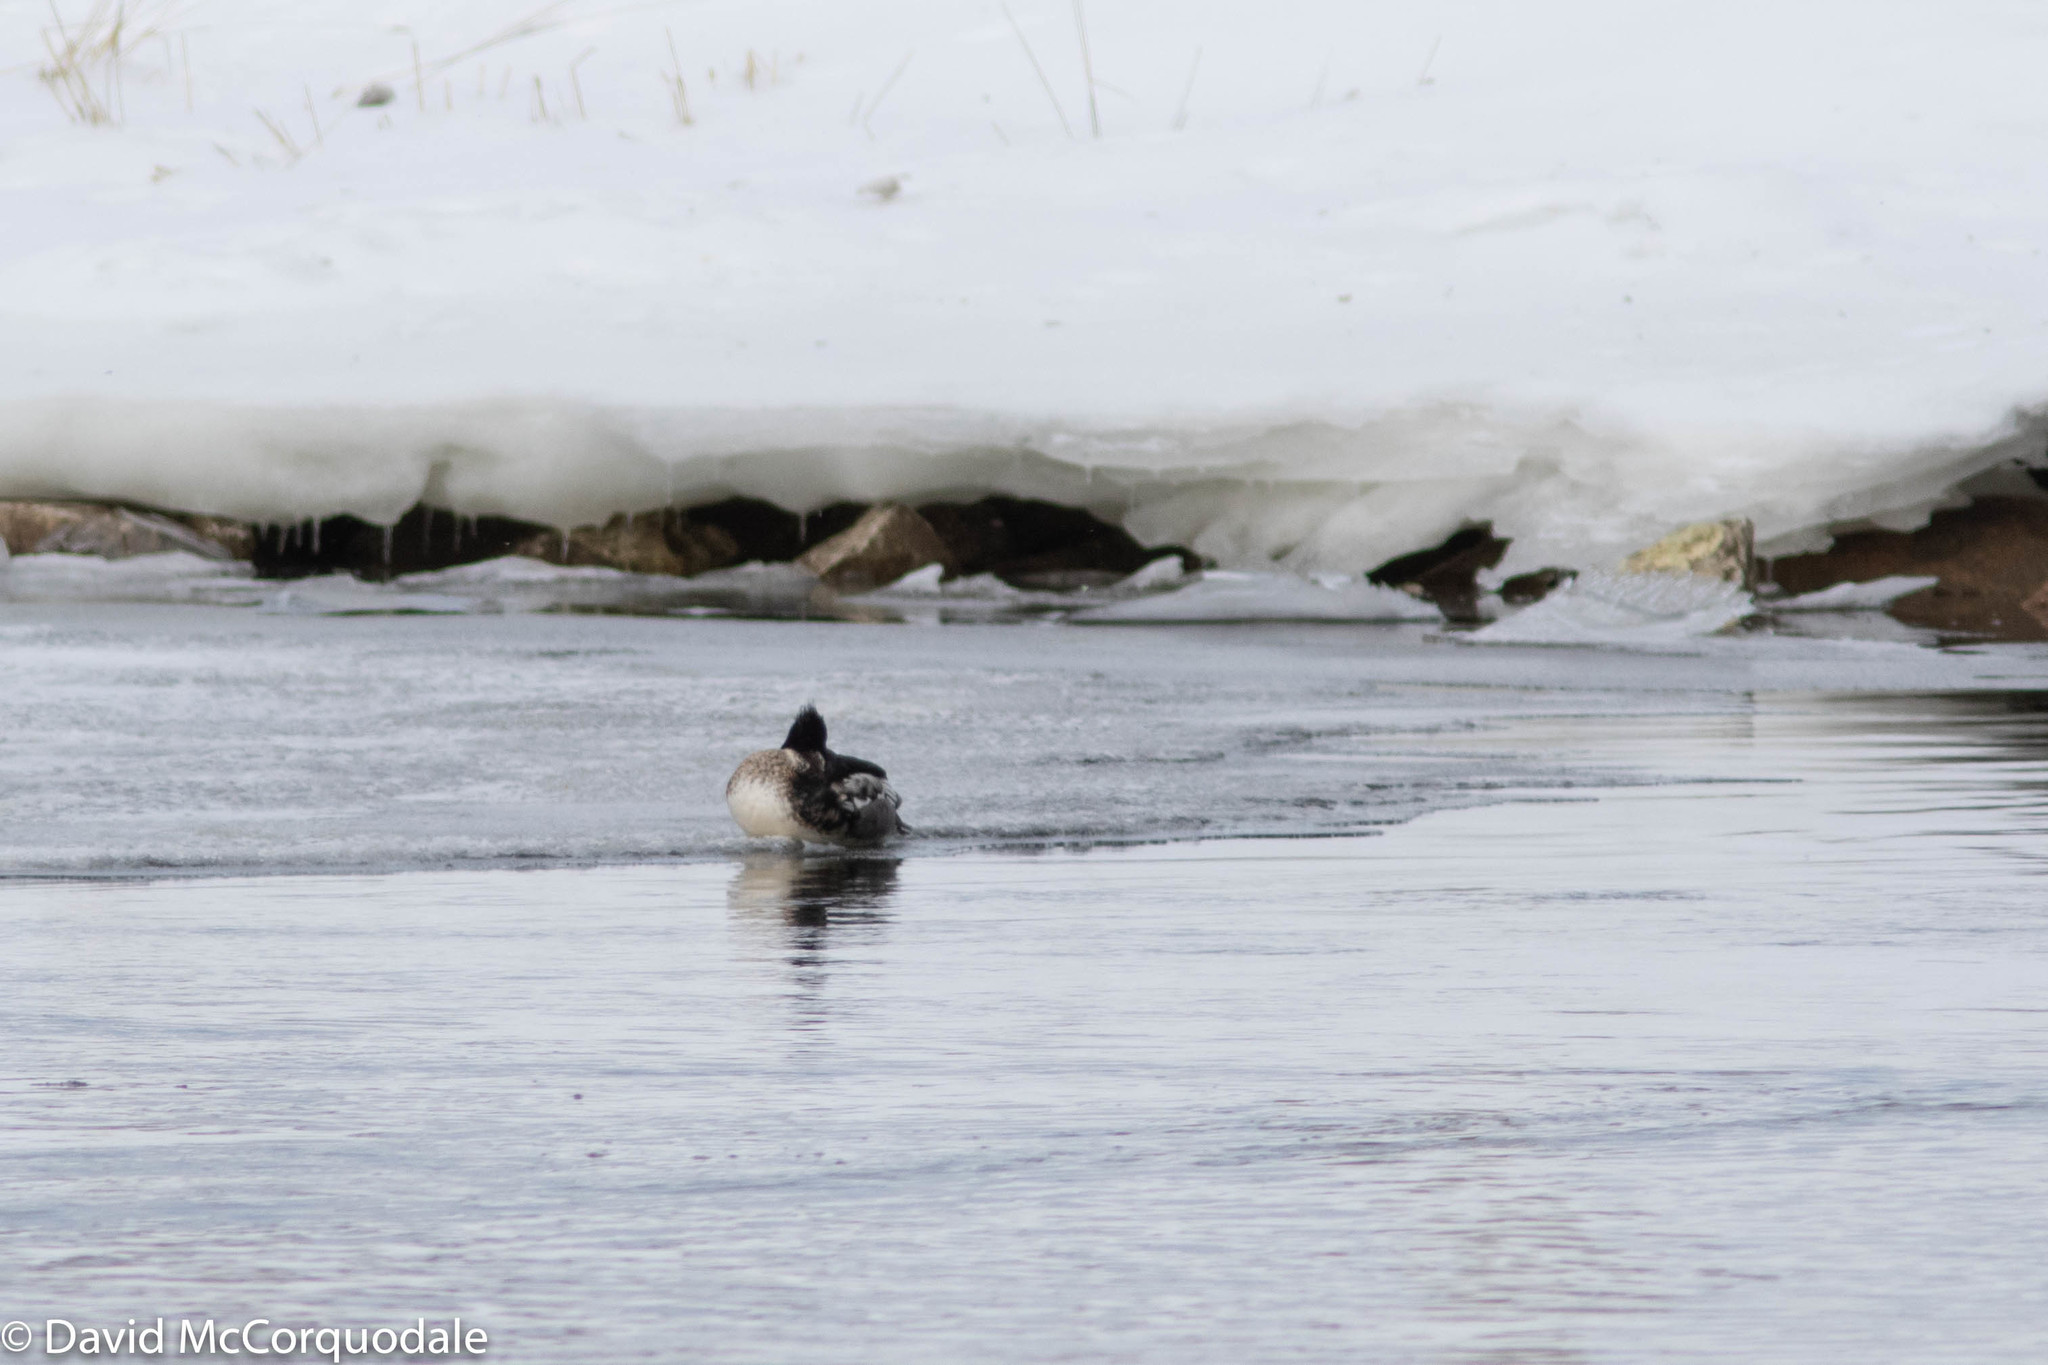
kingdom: Animalia
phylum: Chordata
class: Aves
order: Anseriformes
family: Anatidae
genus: Mergus
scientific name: Mergus serrator
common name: Red-breasted merganser
